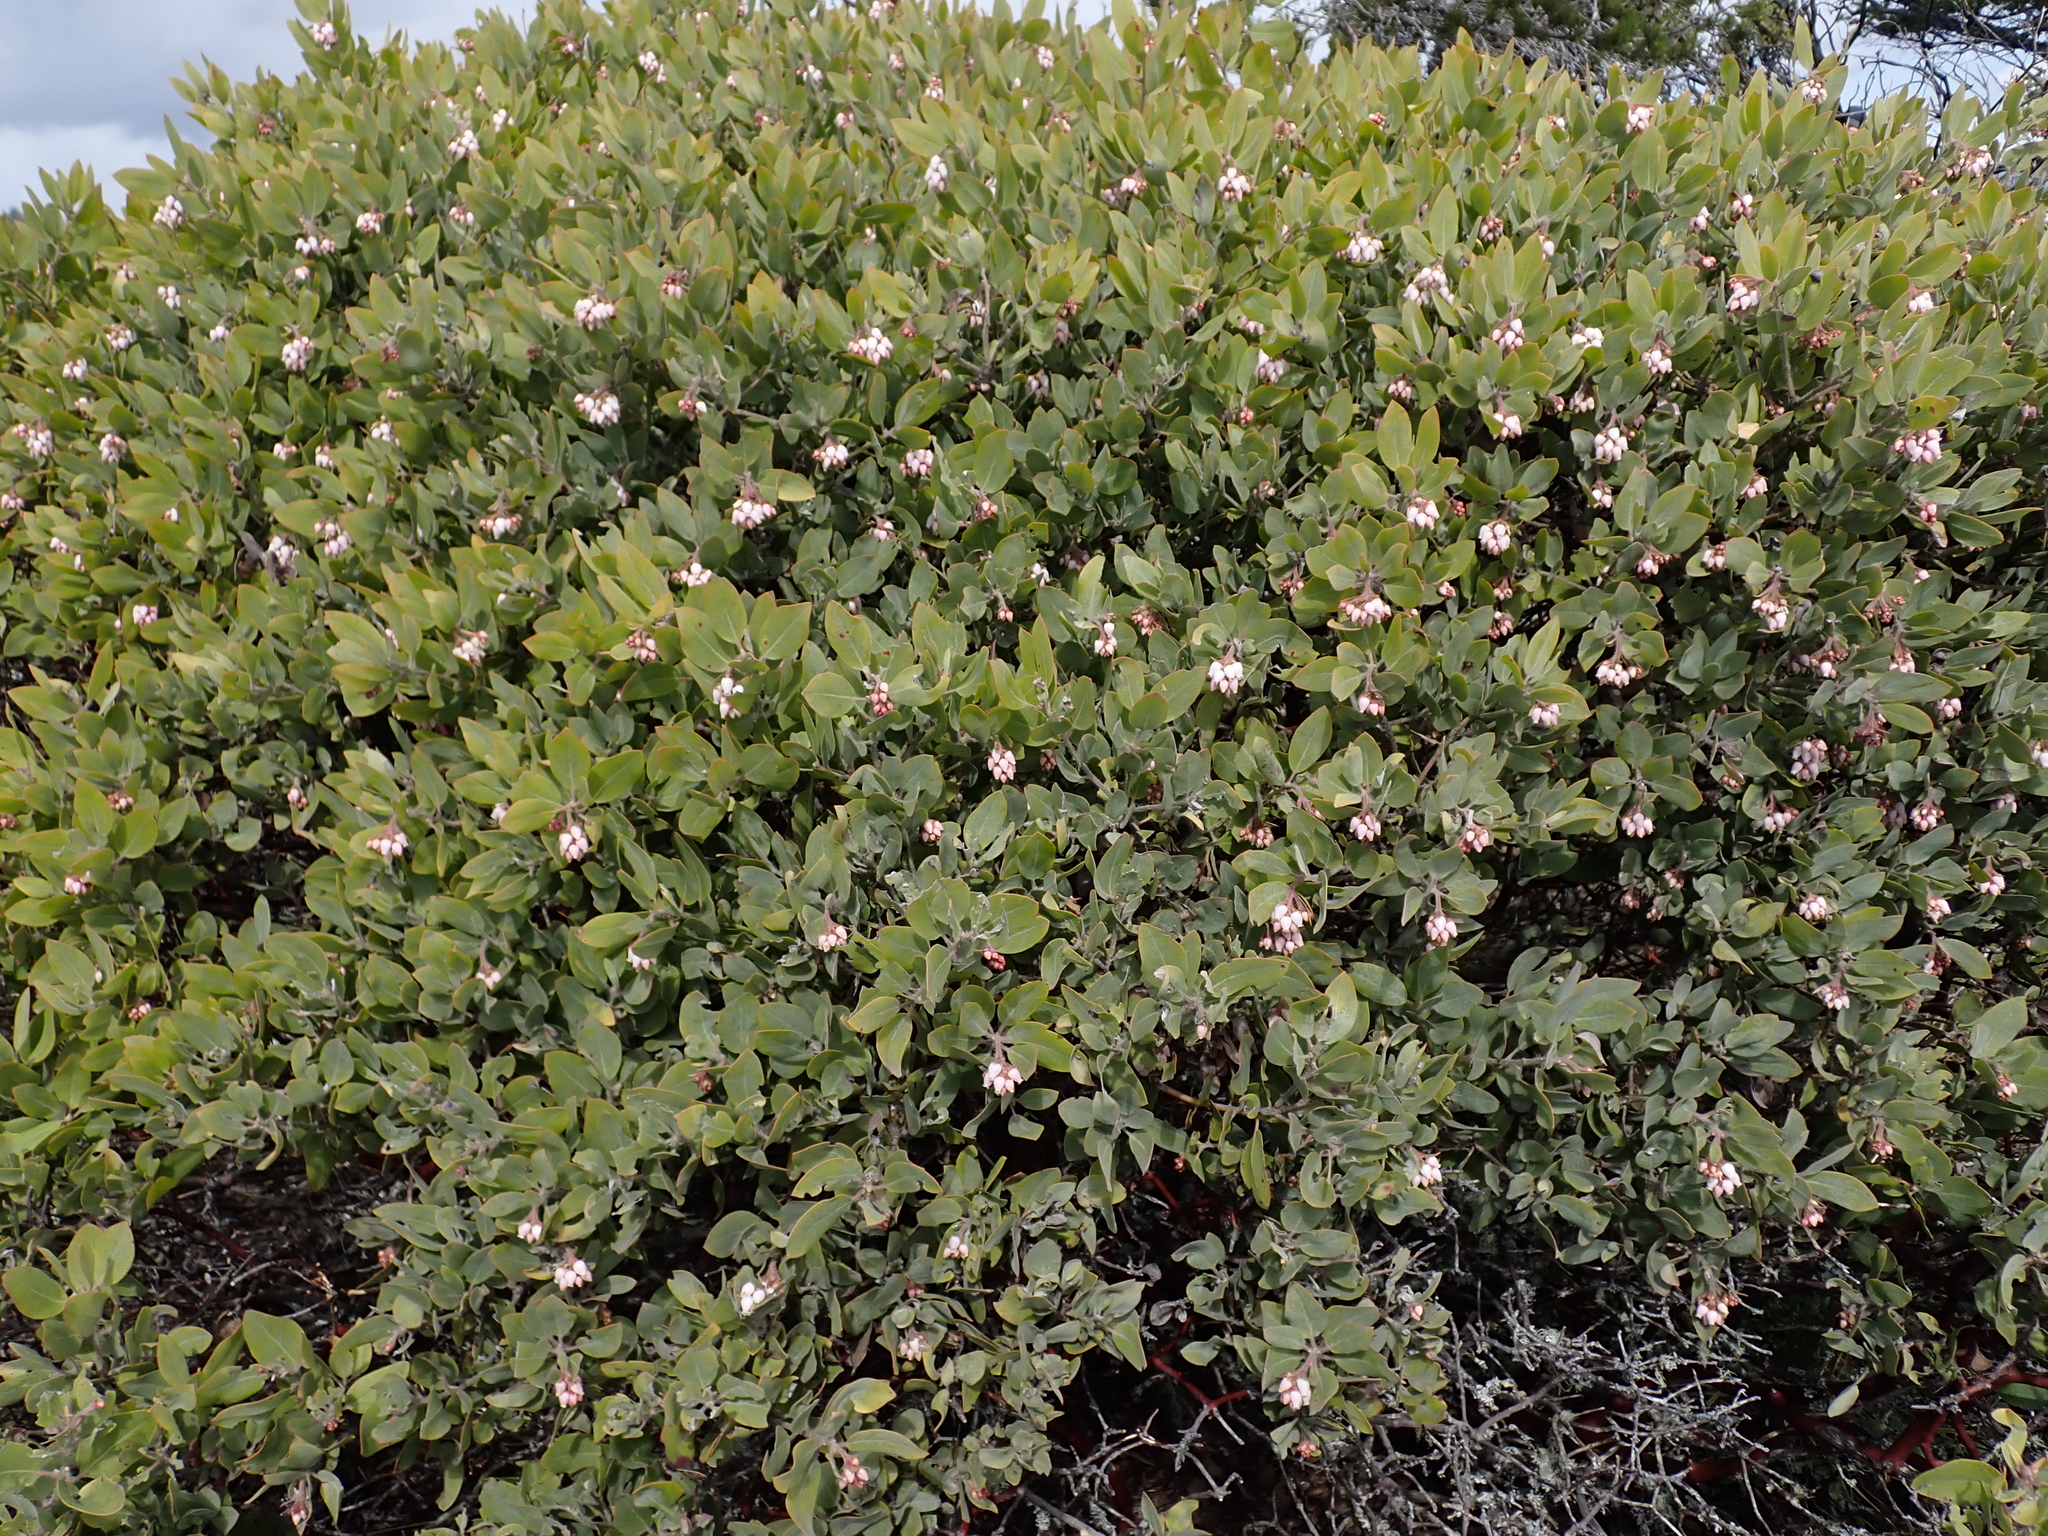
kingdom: Plantae
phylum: Tracheophyta
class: Magnoliopsida
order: Ericales
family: Ericaceae
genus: Arctostaphylos
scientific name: Arctostaphylos columbiana
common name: Bristly bearberry
